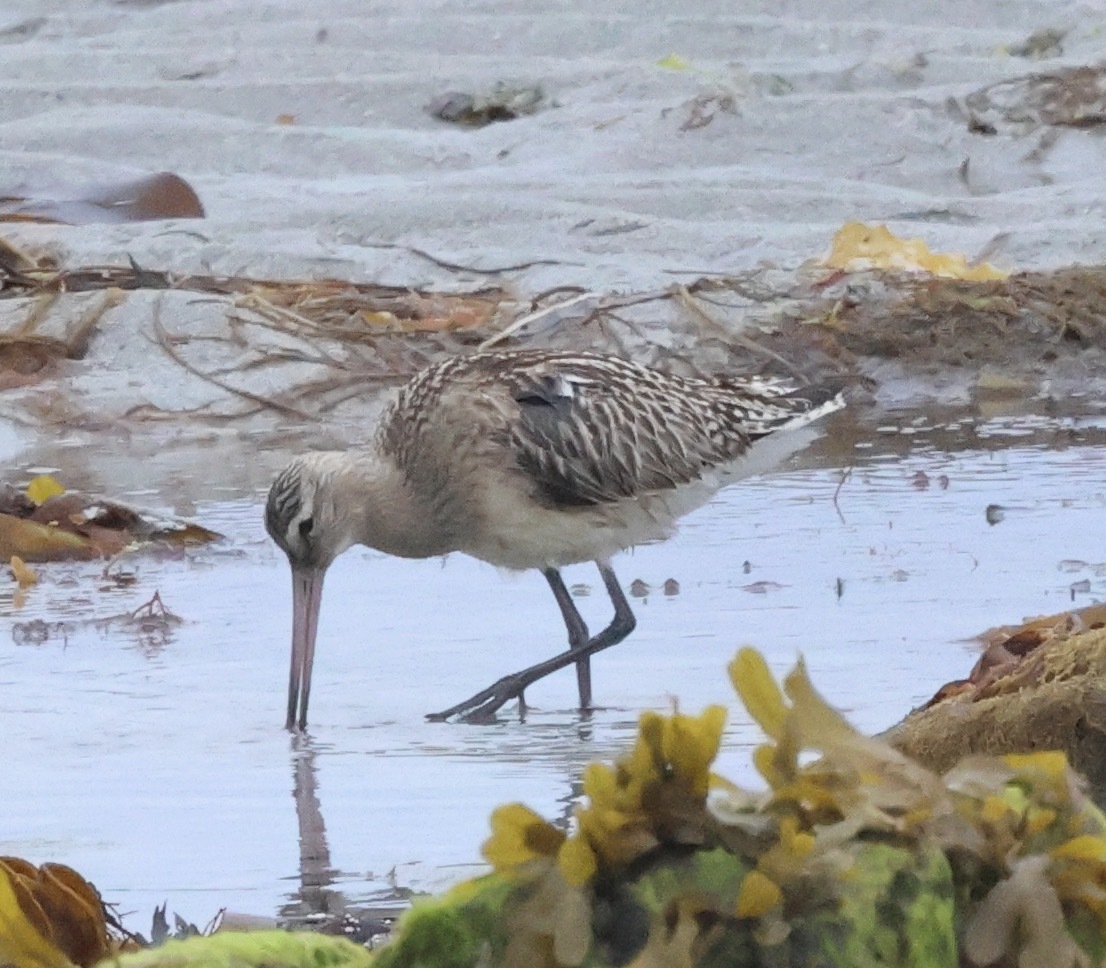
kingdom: Animalia
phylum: Chordata
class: Aves
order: Charadriiformes
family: Scolopacidae
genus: Limosa
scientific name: Limosa lapponica
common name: Bar-tailed godwit
